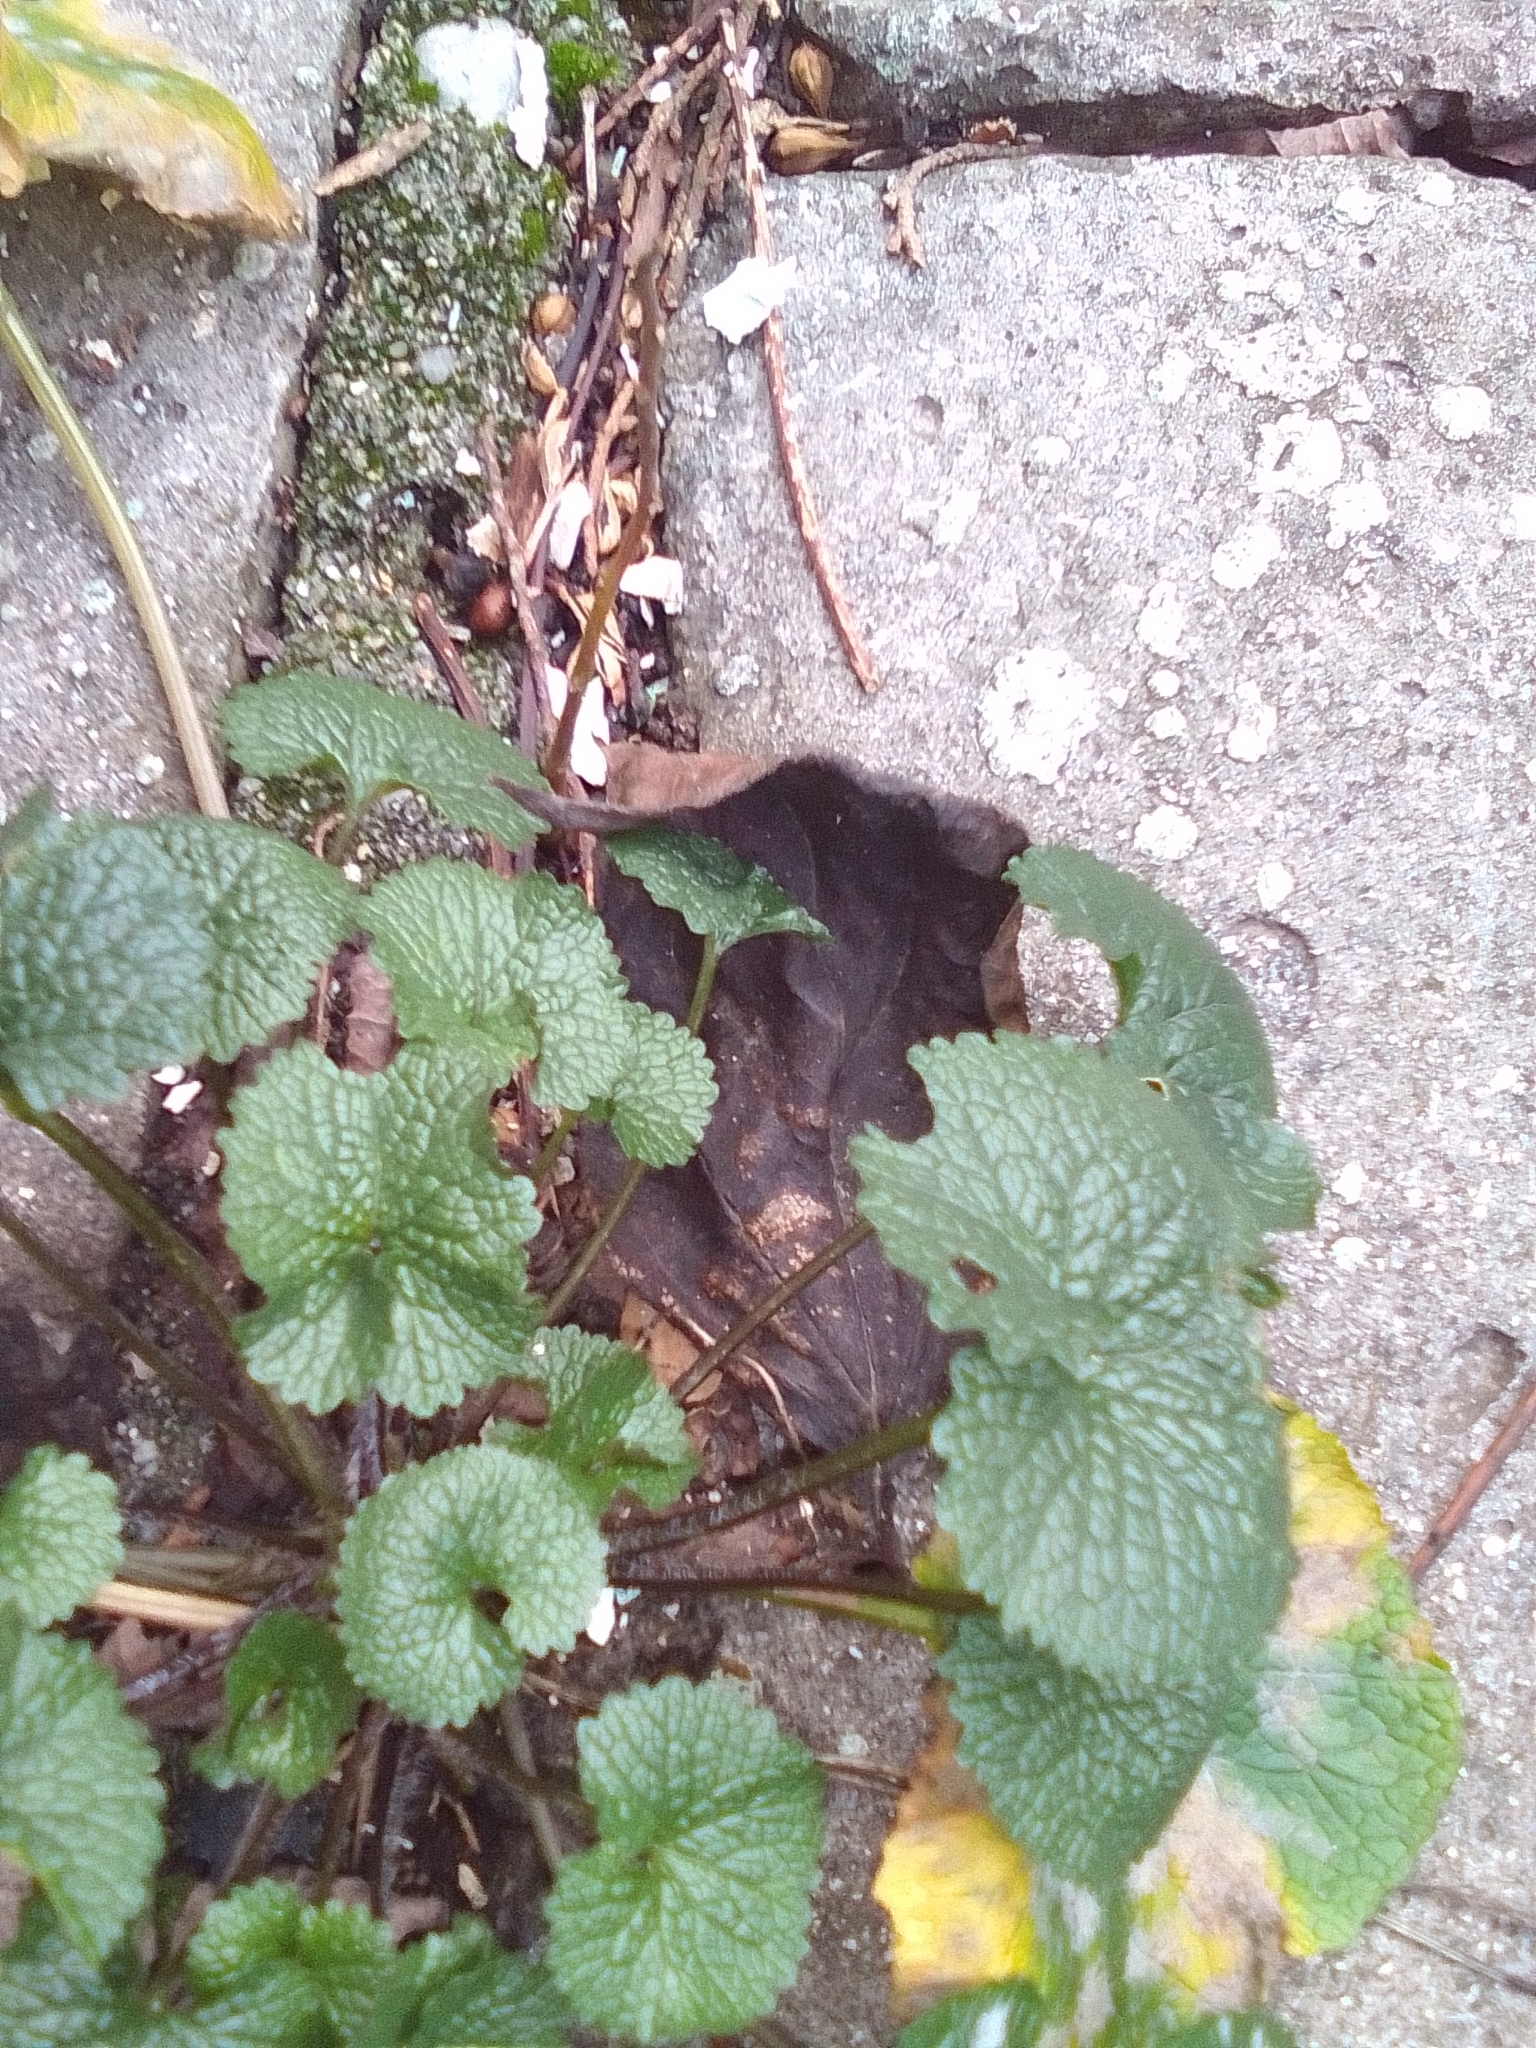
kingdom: Plantae
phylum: Tracheophyta
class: Magnoliopsida
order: Brassicales
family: Brassicaceae
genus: Alliaria
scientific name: Alliaria petiolata
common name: Garlic mustard
